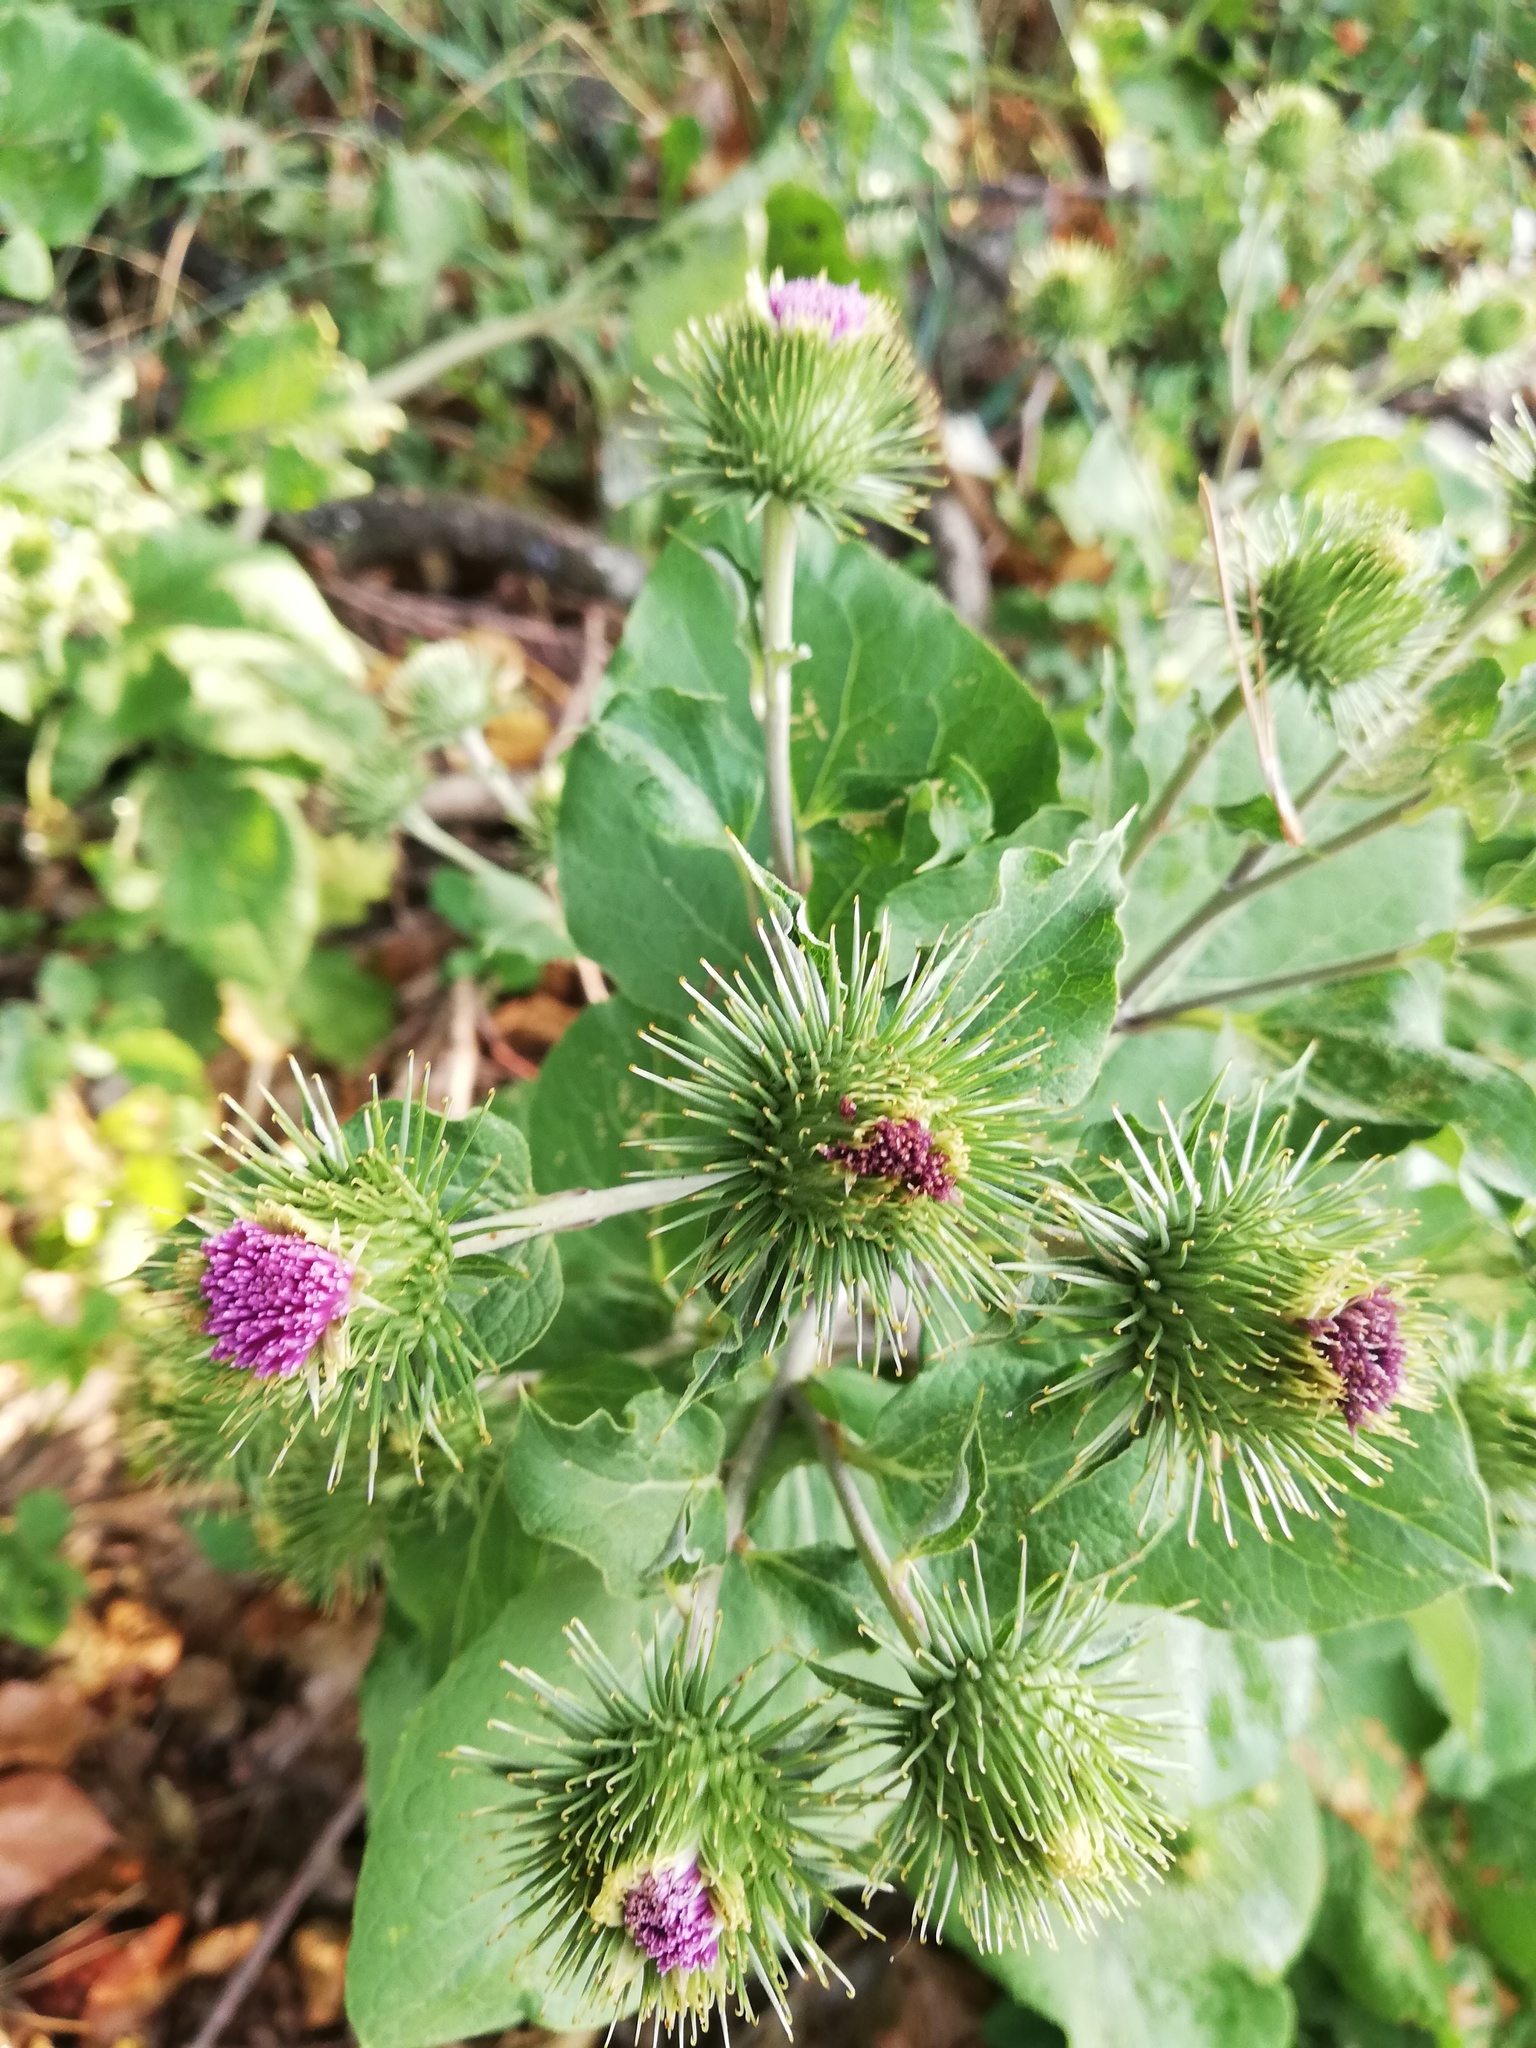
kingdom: Plantae
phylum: Tracheophyta
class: Magnoliopsida
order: Asterales
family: Asteraceae
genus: Arctium
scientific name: Arctium lappa
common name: Greater burdock
